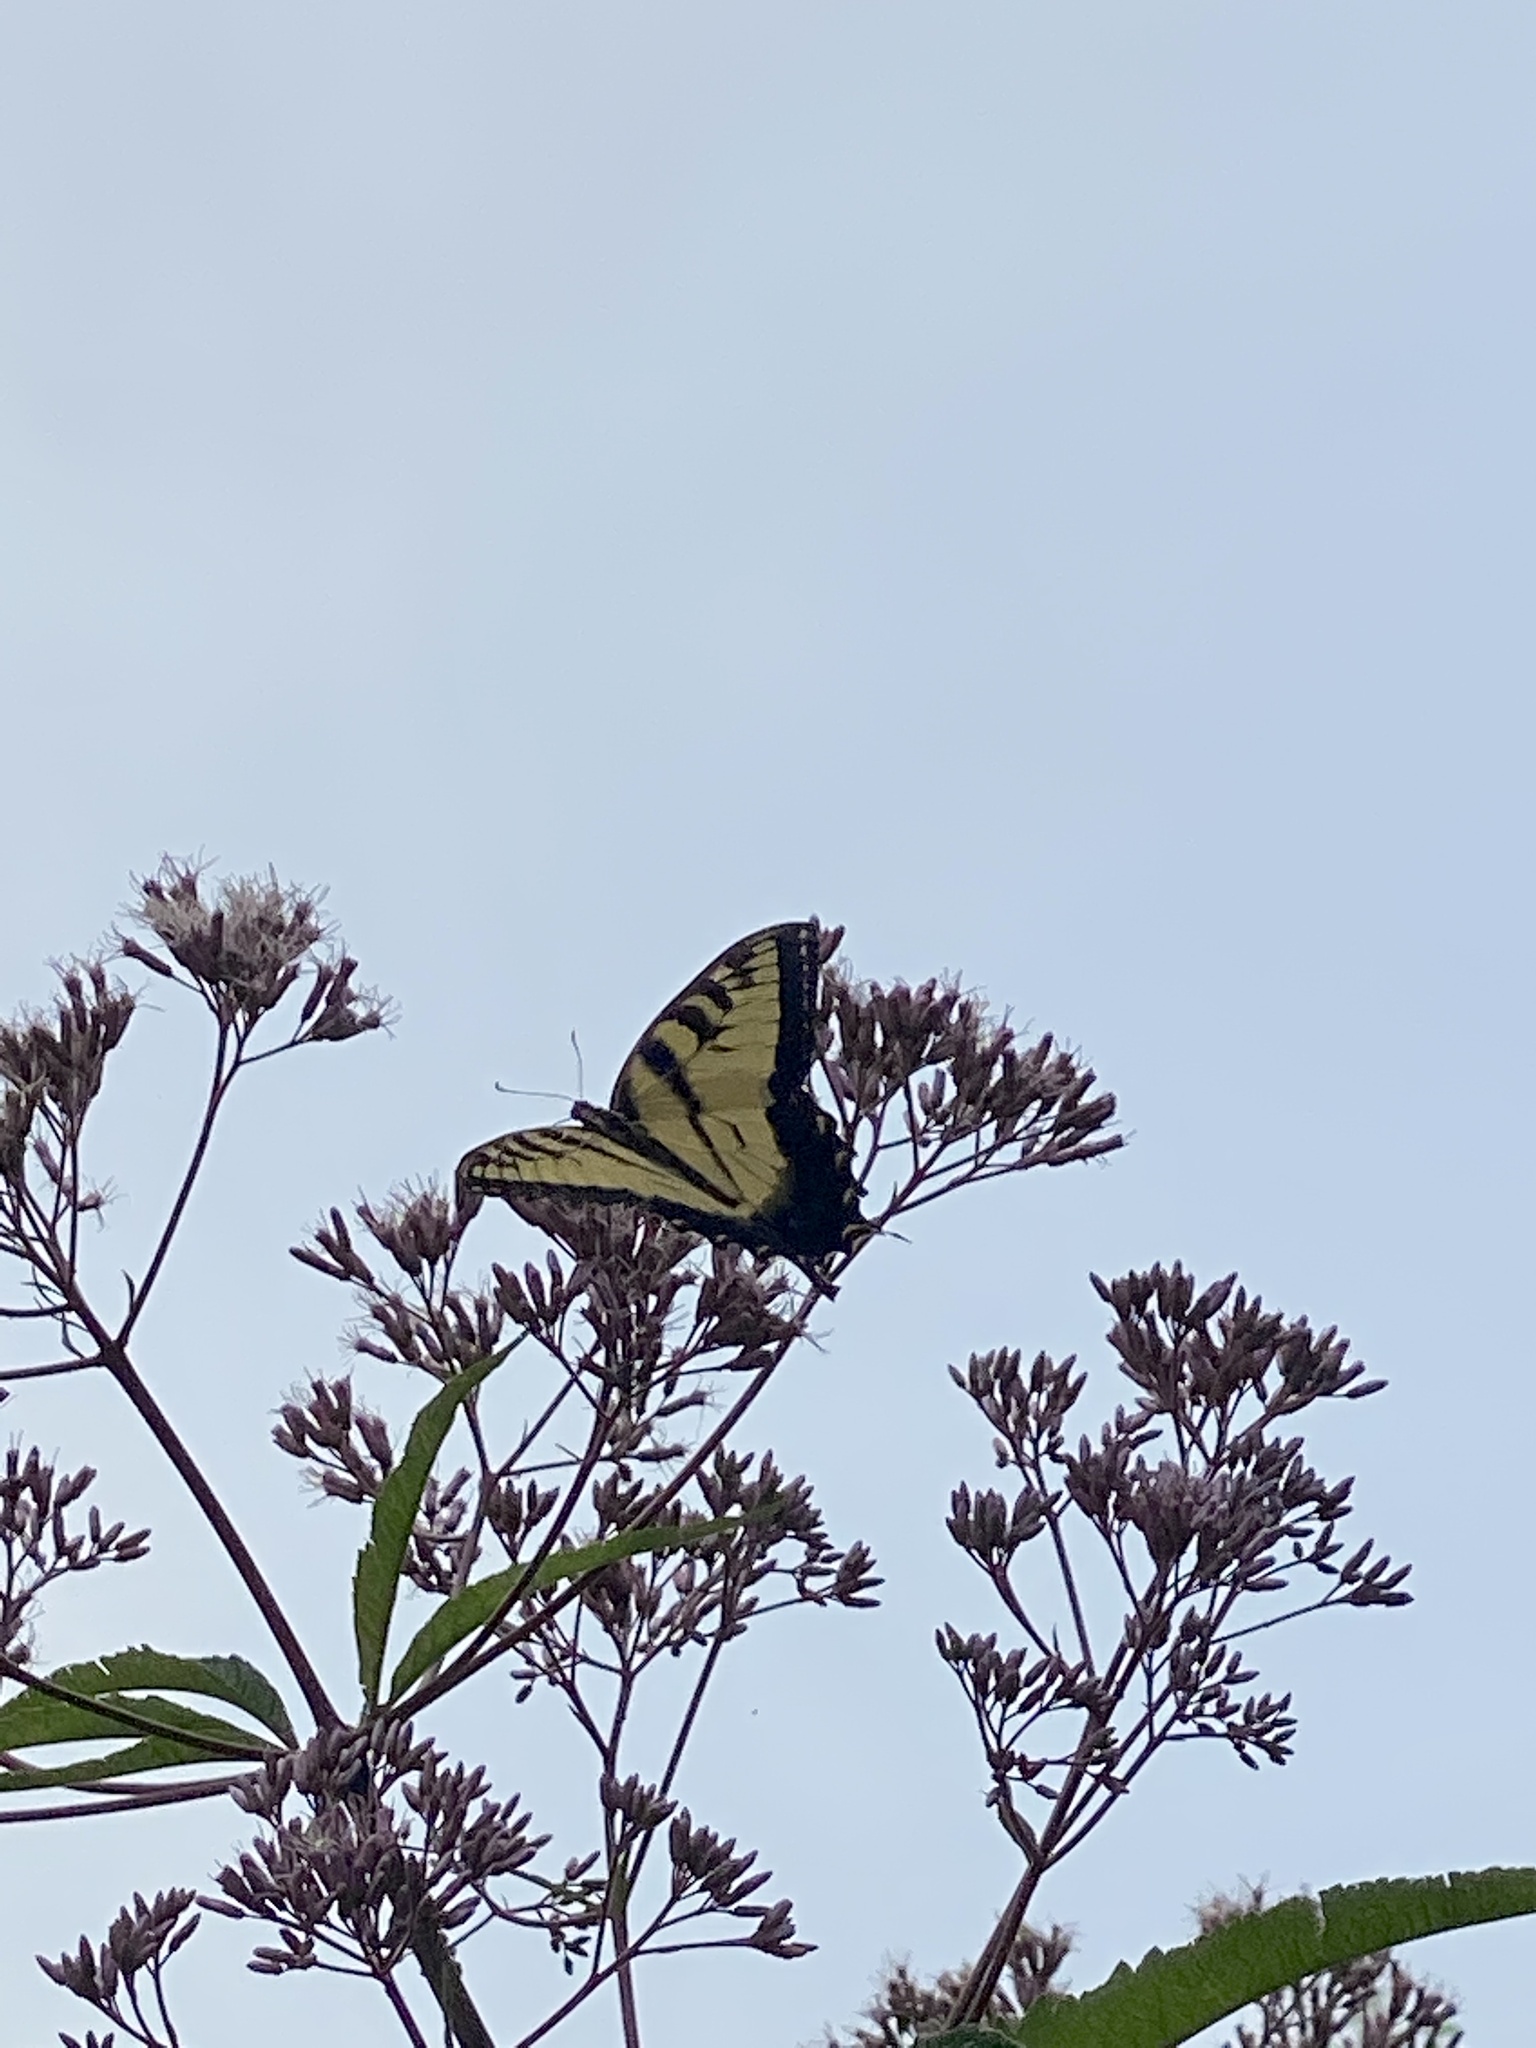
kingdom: Animalia
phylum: Arthropoda
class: Insecta
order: Lepidoptera
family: Papilionidae
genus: Papilio
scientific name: Papilio glaucus
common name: Tiger swallowtail
